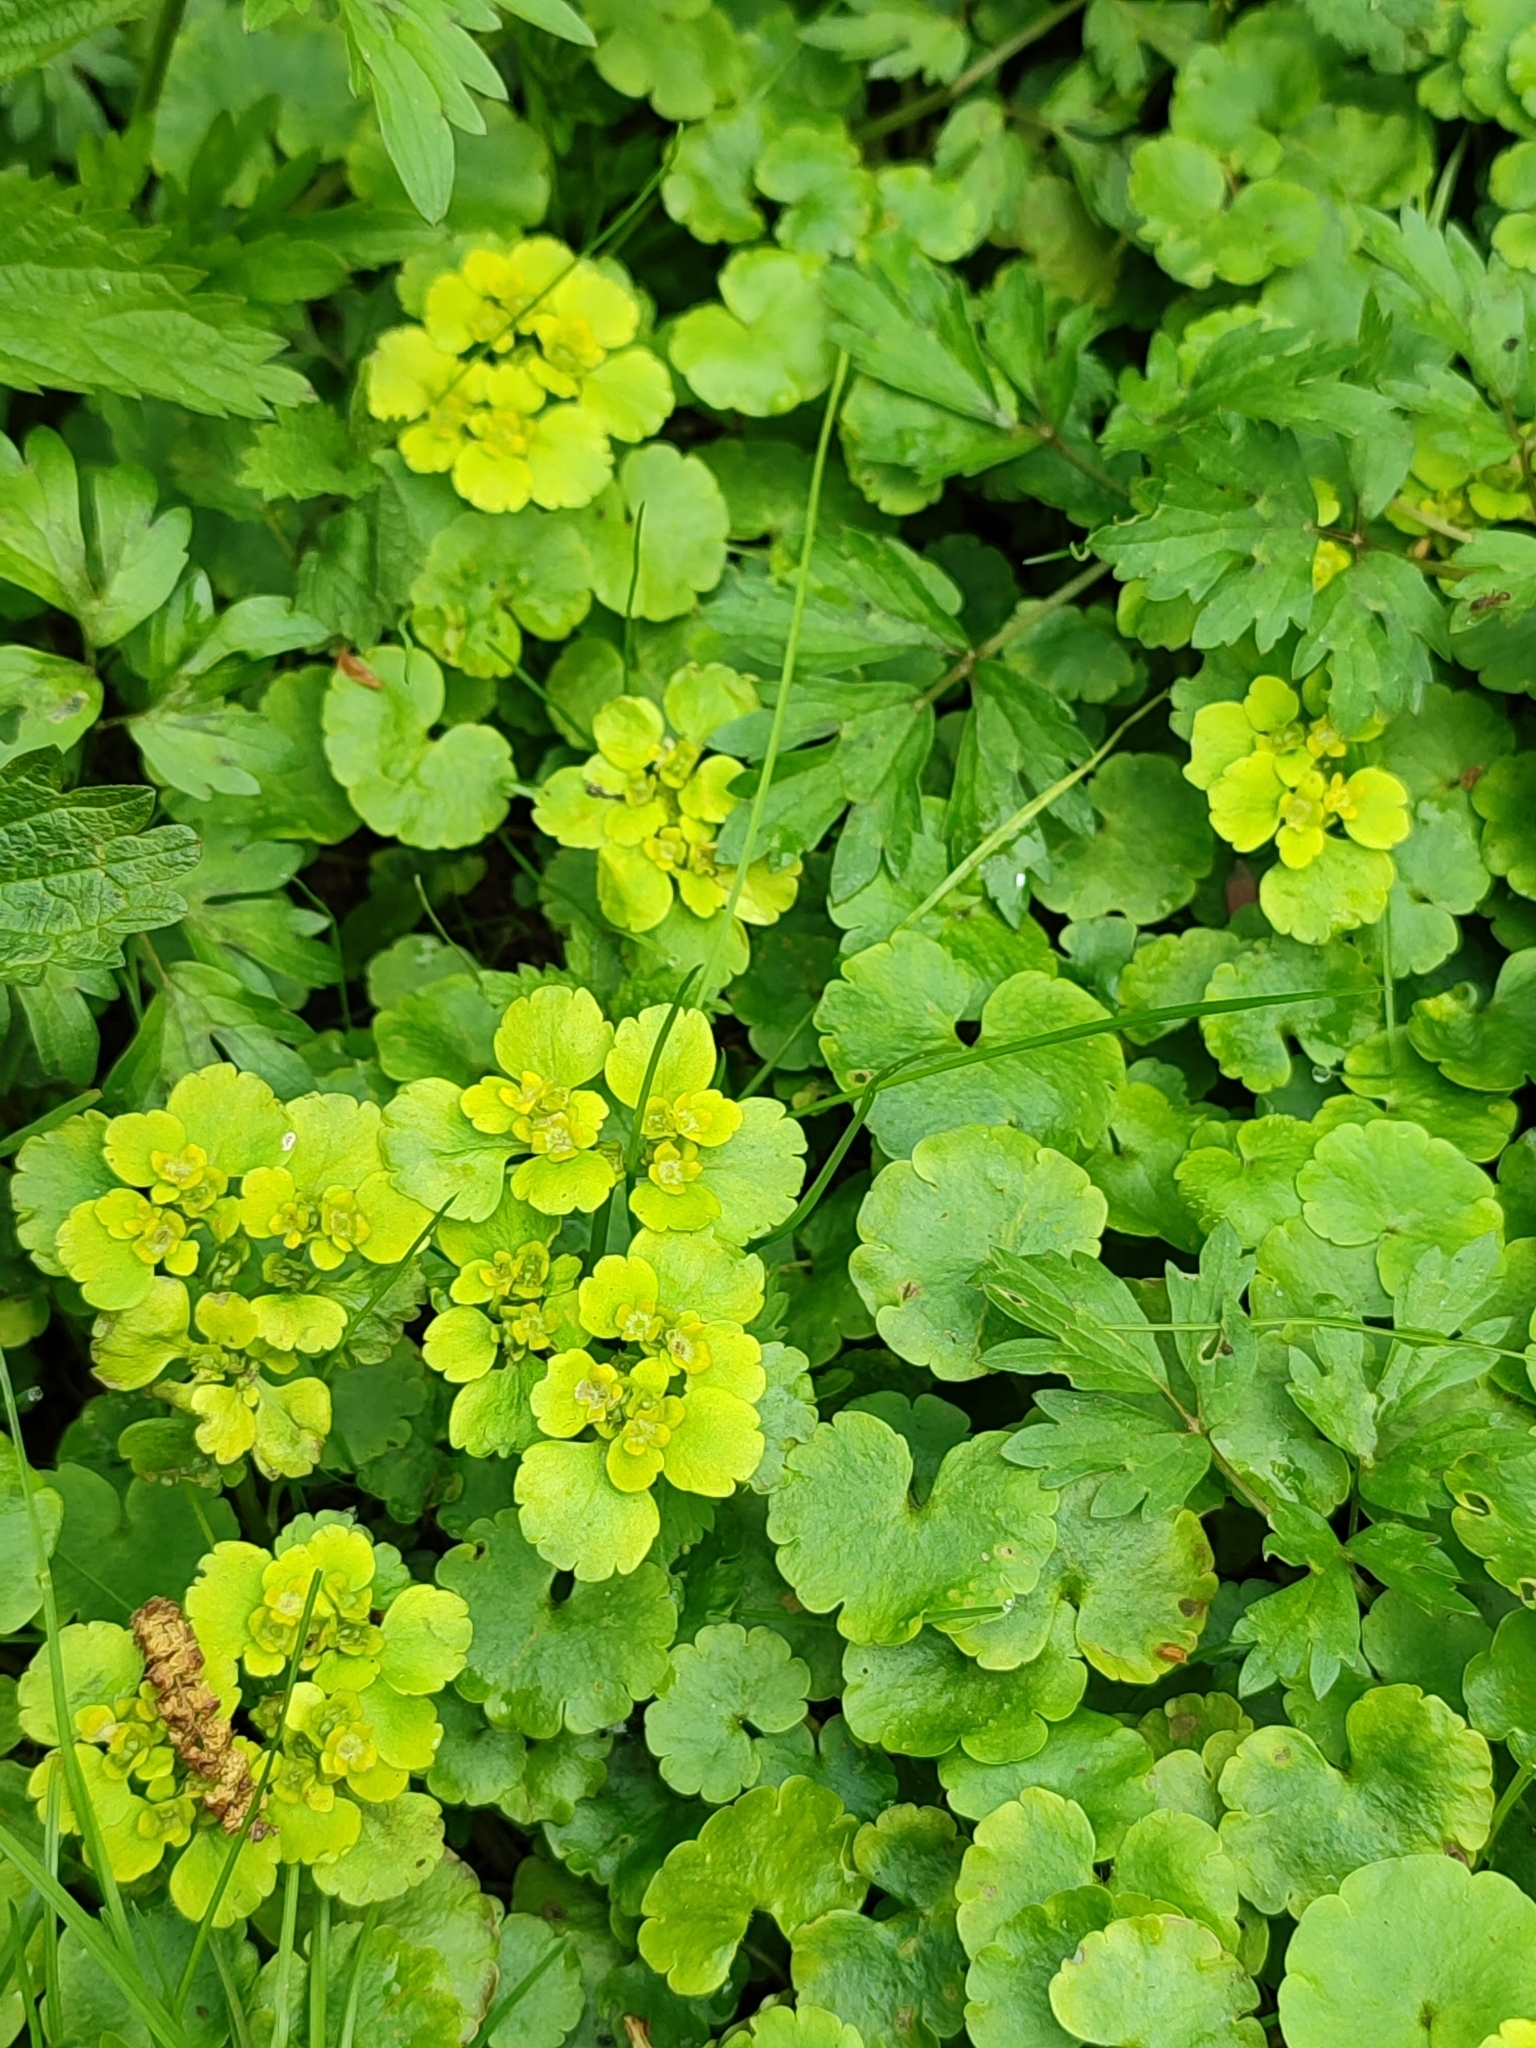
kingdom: Plantae
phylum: Tracheophyta
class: Magnoliopsida
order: Saxifragales
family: Saxifragaceae
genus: Chrysosplenium
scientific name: Chrysosplenium alternifolium
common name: Alternate-leaved golden-saxifrage
